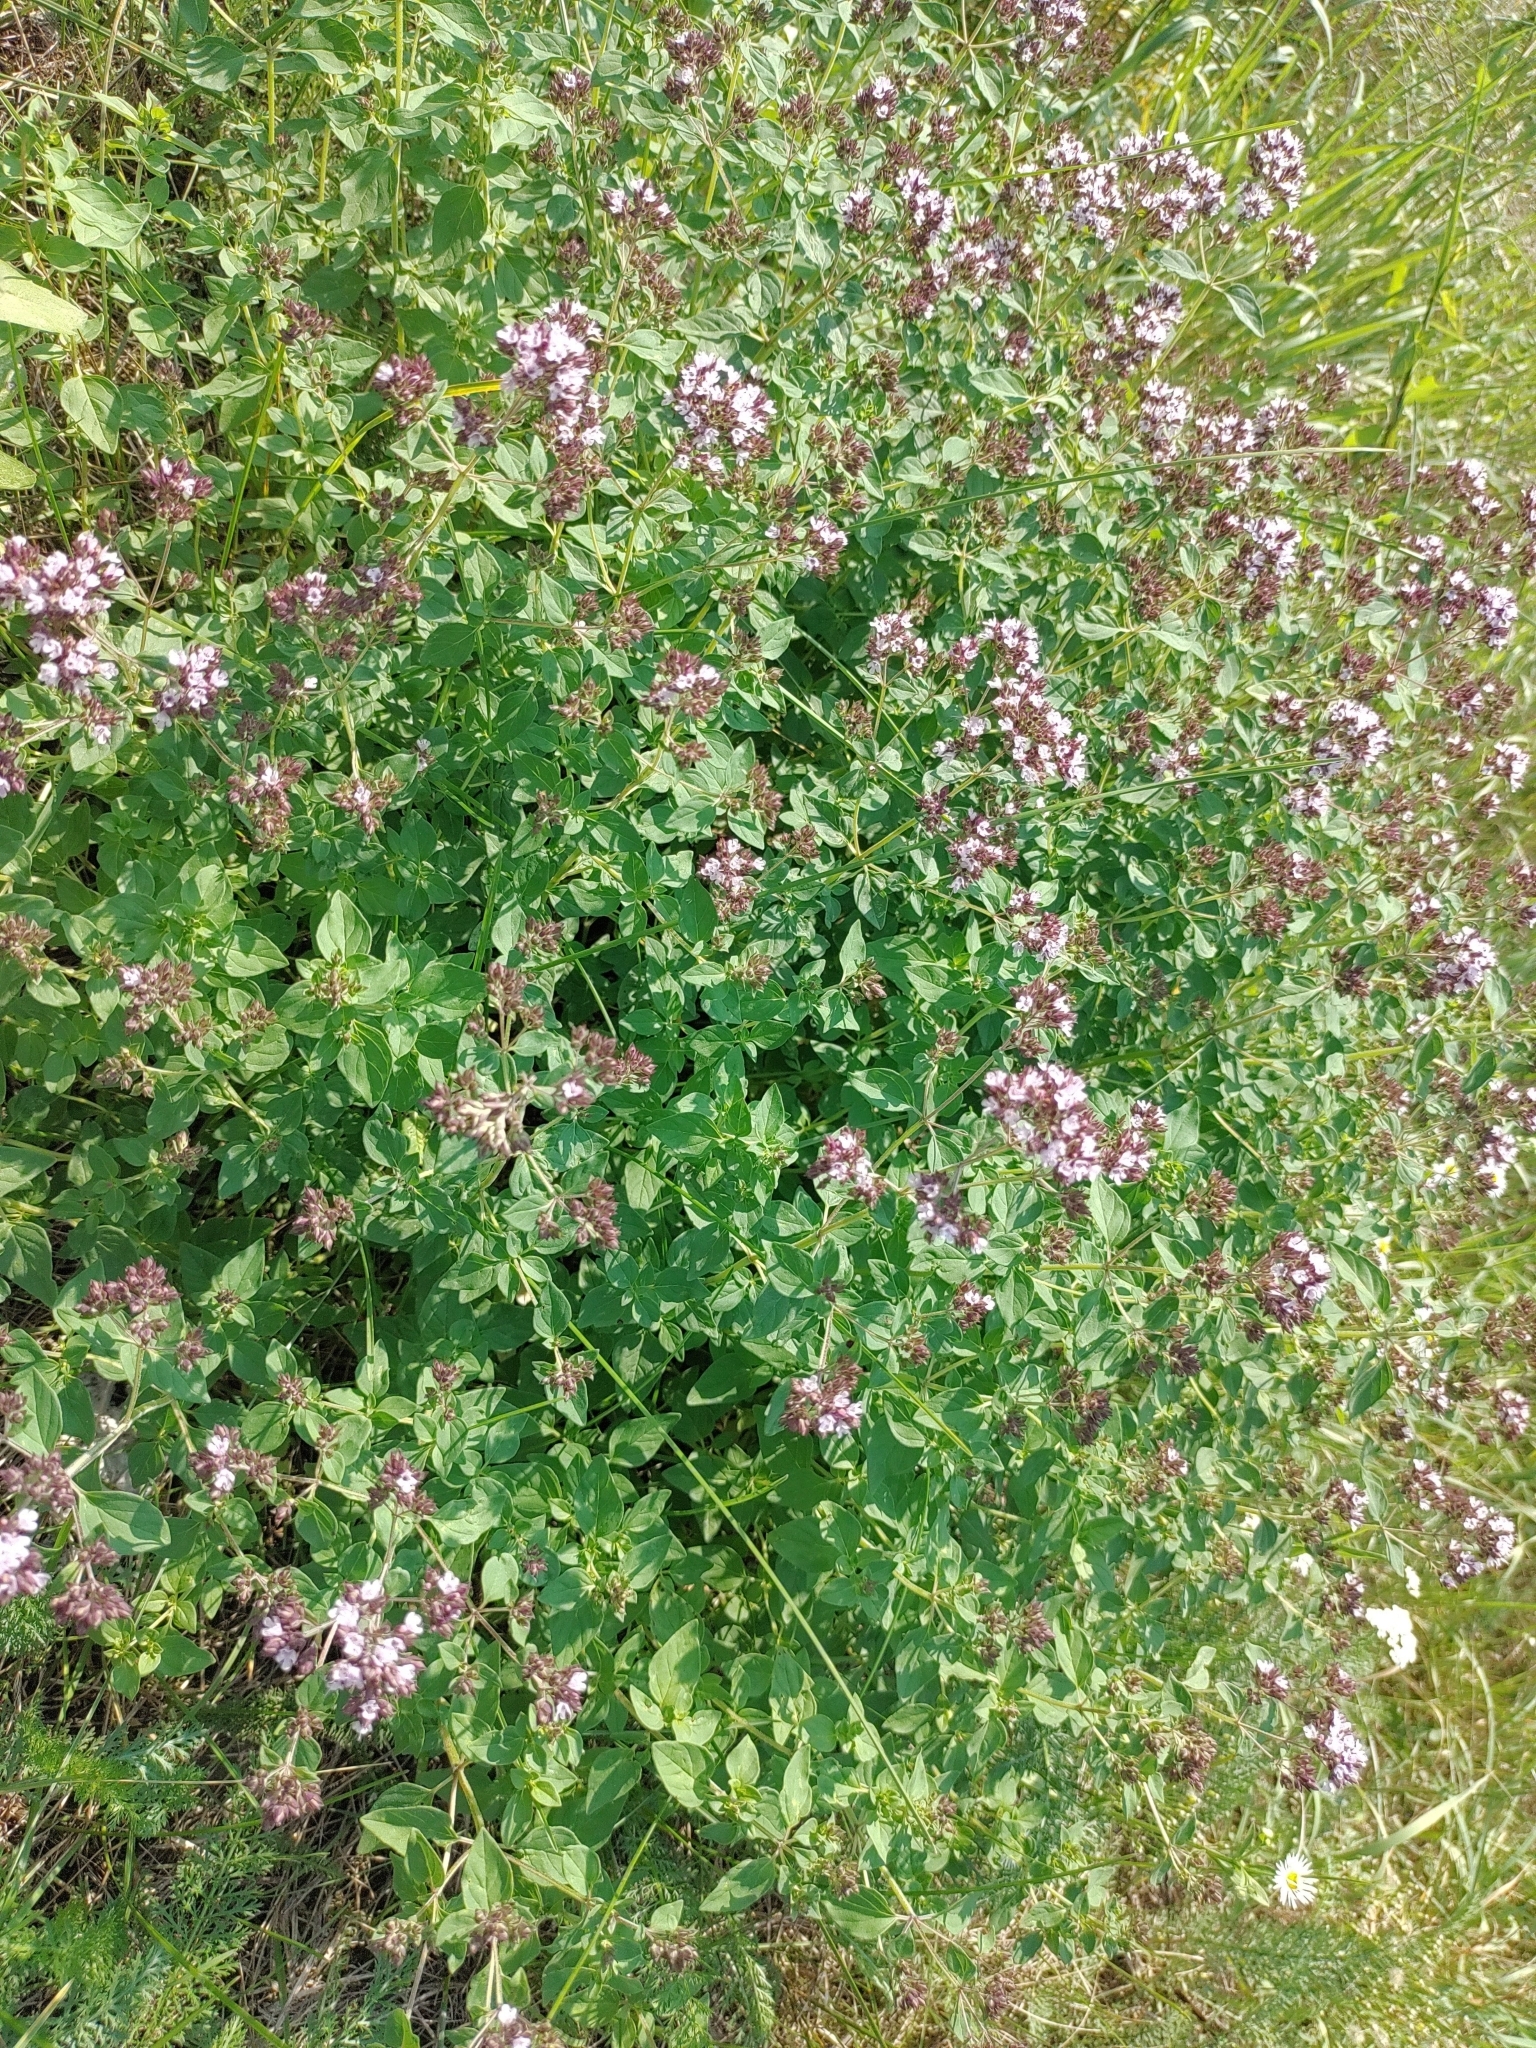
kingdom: Plantae
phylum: Tracheophyta
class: Magnoliopsida
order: Lamiales
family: Lamiaceae
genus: Origanum
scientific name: Origanum vulgare
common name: Wild marjoram
